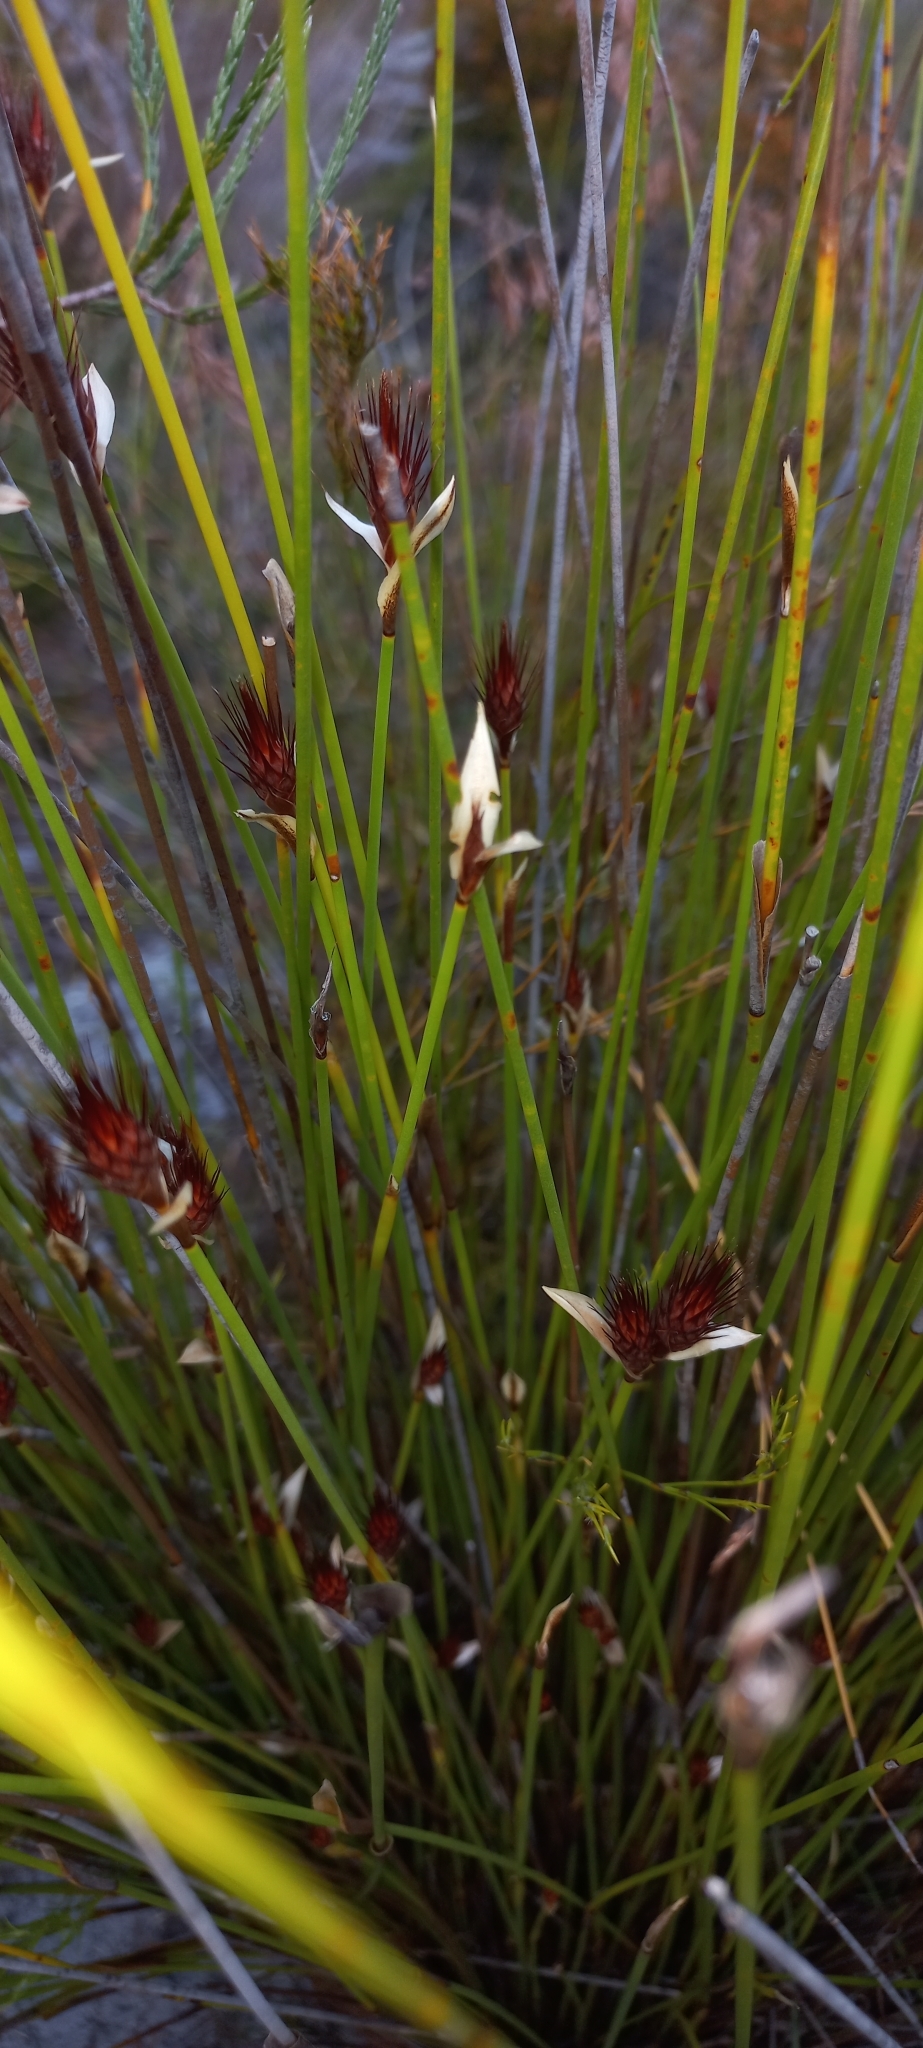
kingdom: Plantae
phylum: Tracheophyta
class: Liliopsida
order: Poales
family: Restionaceae
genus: Hypodiscus
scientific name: Hypodiscus aristatus
